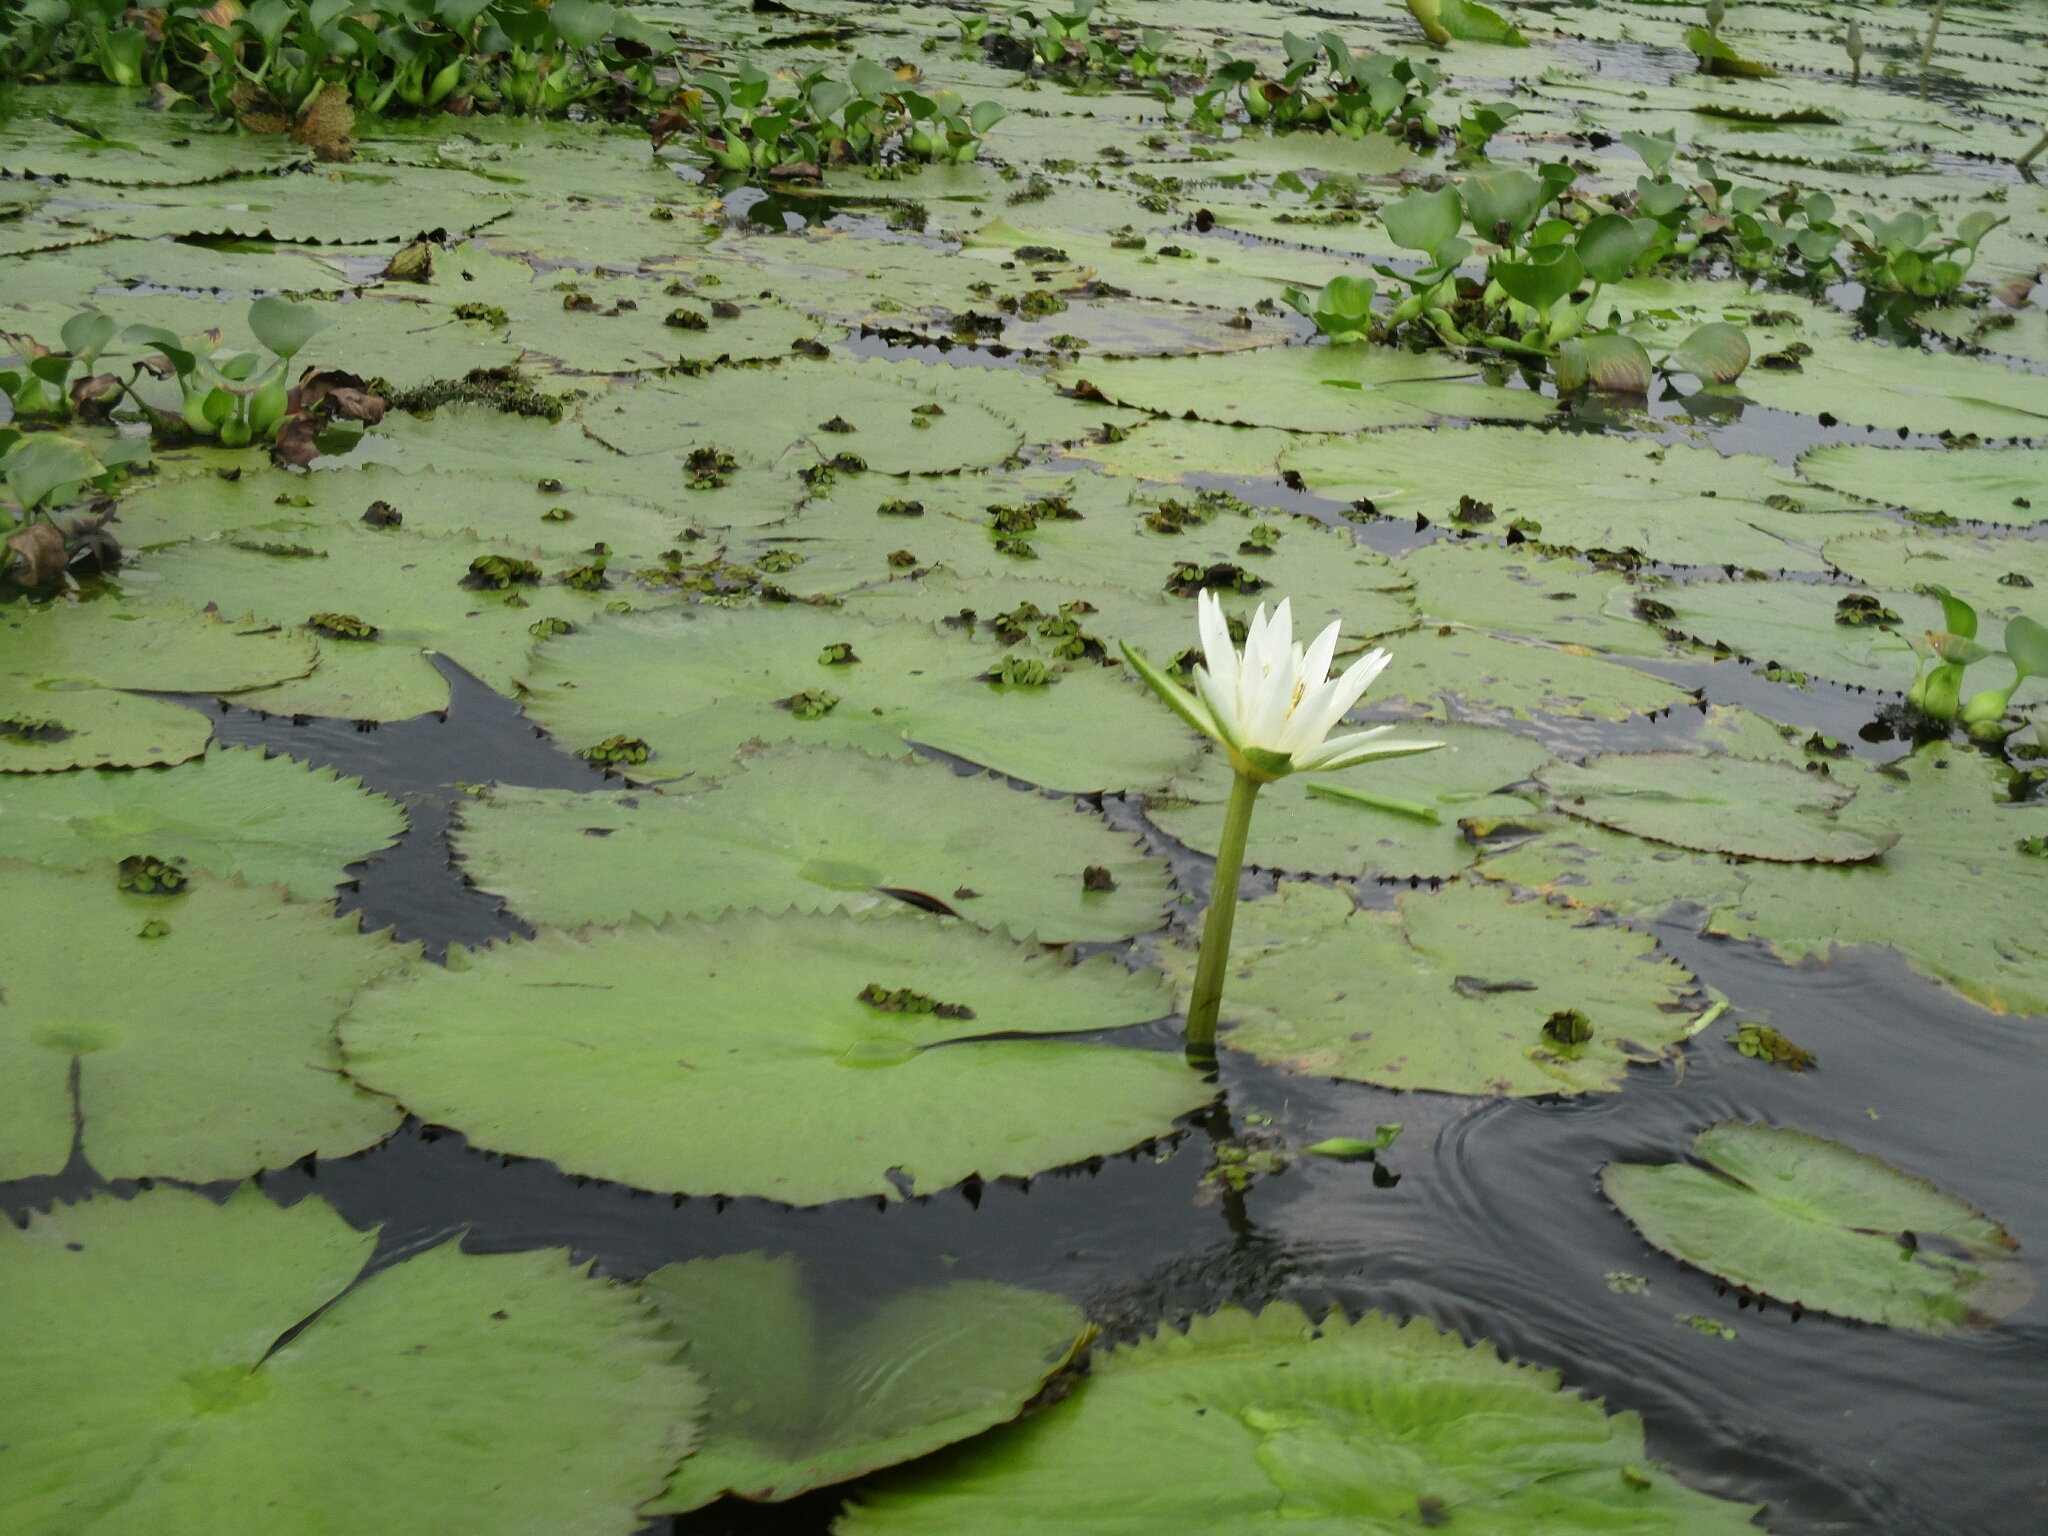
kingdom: Plantae
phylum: Tracheophyta
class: Magnoliopsida
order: Nymphaeales
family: Nymphaeaceae
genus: Nymphaea
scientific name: Nymphaea ampla
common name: Dotleaf waterlily
